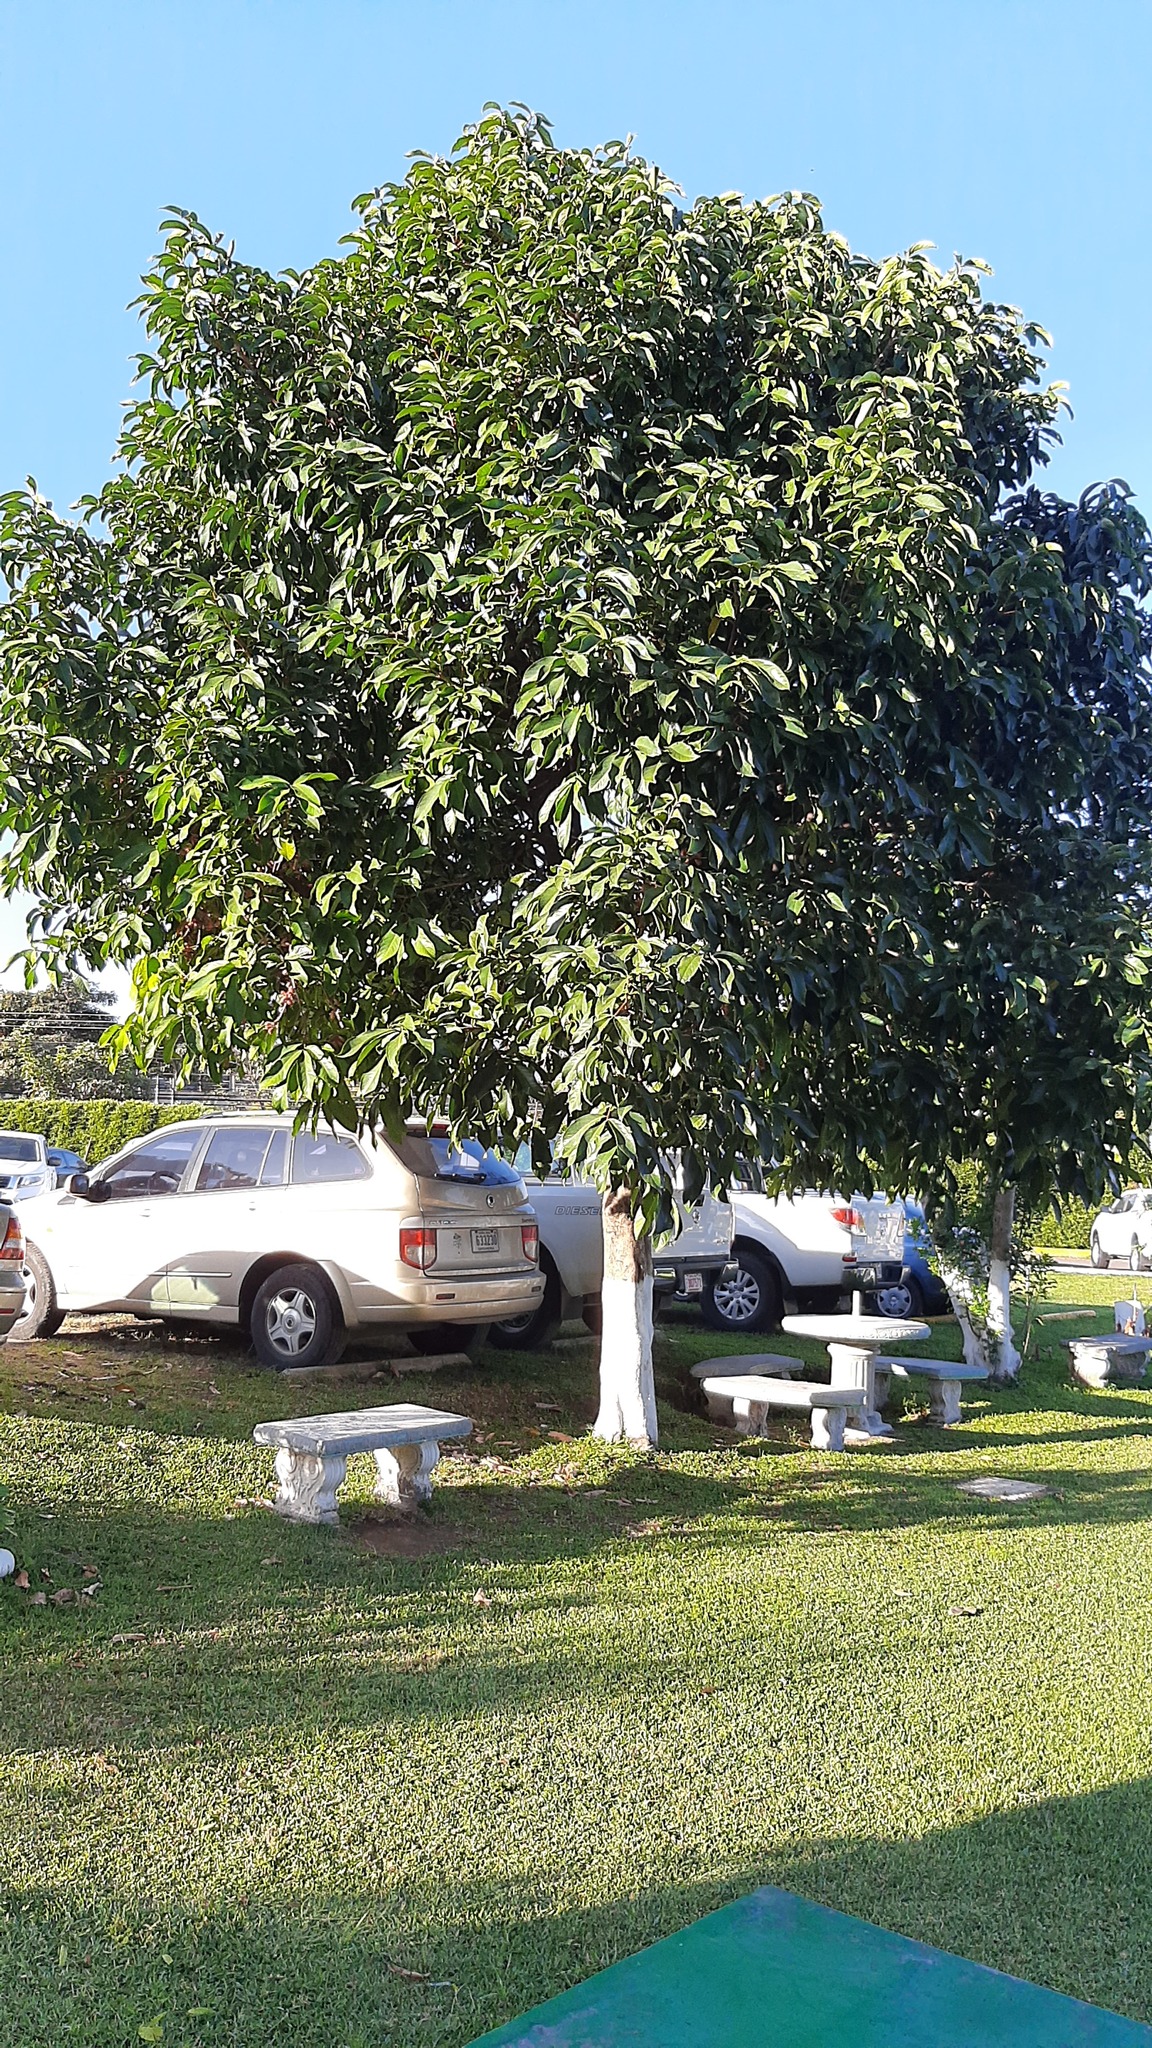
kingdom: Plantae
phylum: Tracheophyta
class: Magnoliopsida
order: Myrtales
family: Myrtaceae
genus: Syzygium
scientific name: Syzygium malaccense
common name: Malaysian apple
